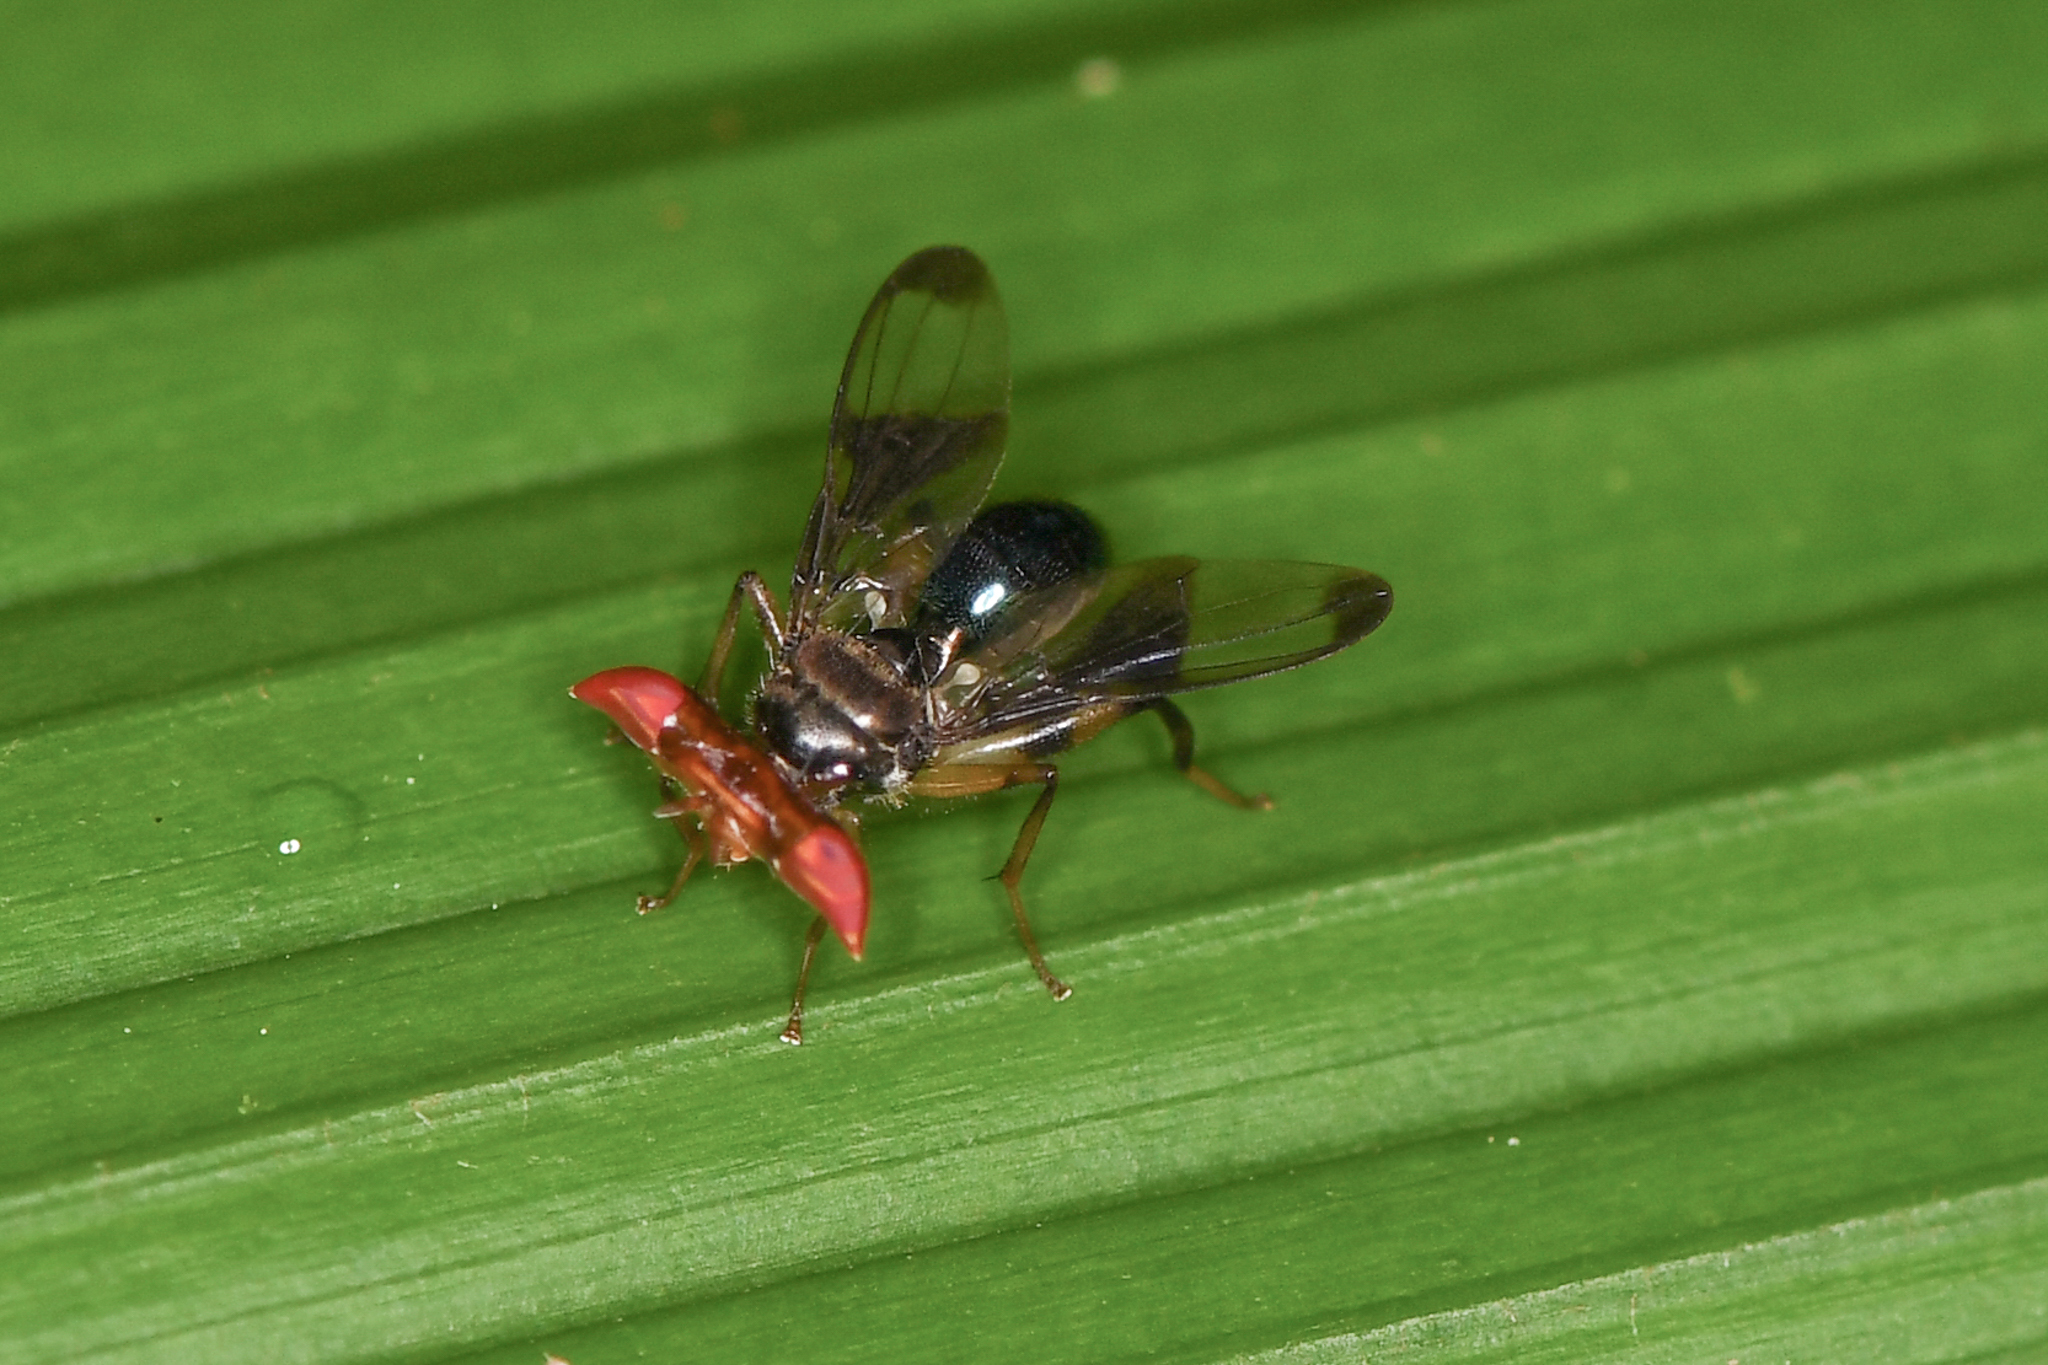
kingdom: Animalia
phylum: Arthropoda
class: Insecta
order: Diptera
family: Richardiidae
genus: Richardia
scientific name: Richardia
